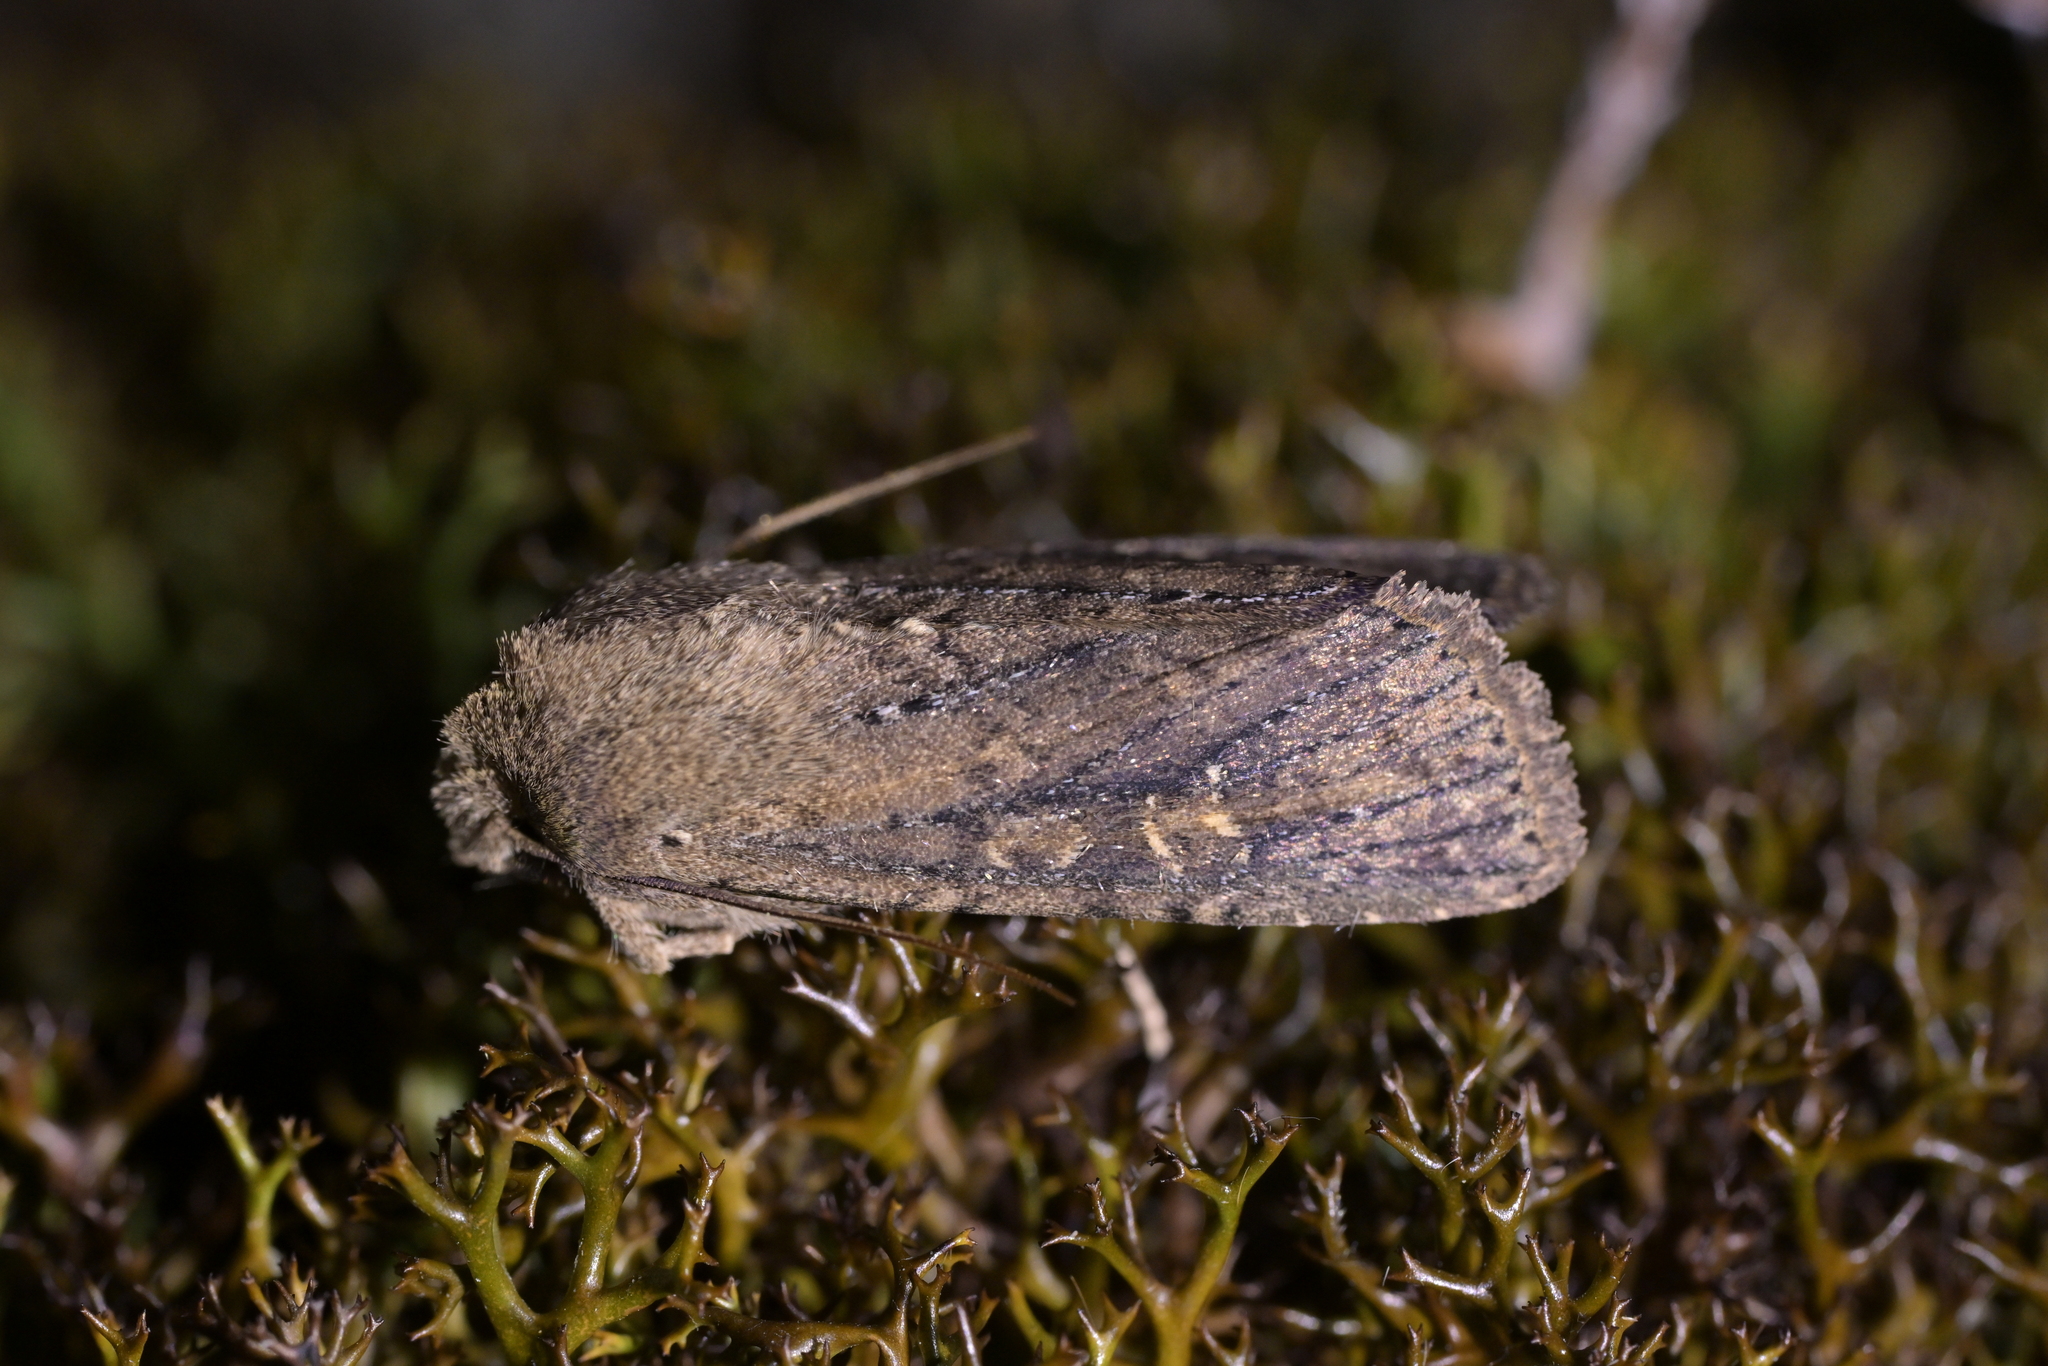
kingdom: Animalia
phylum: Arthropoda
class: Insecta
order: Lepidoptera
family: Noctuidae
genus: Physetica
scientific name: Physetica
